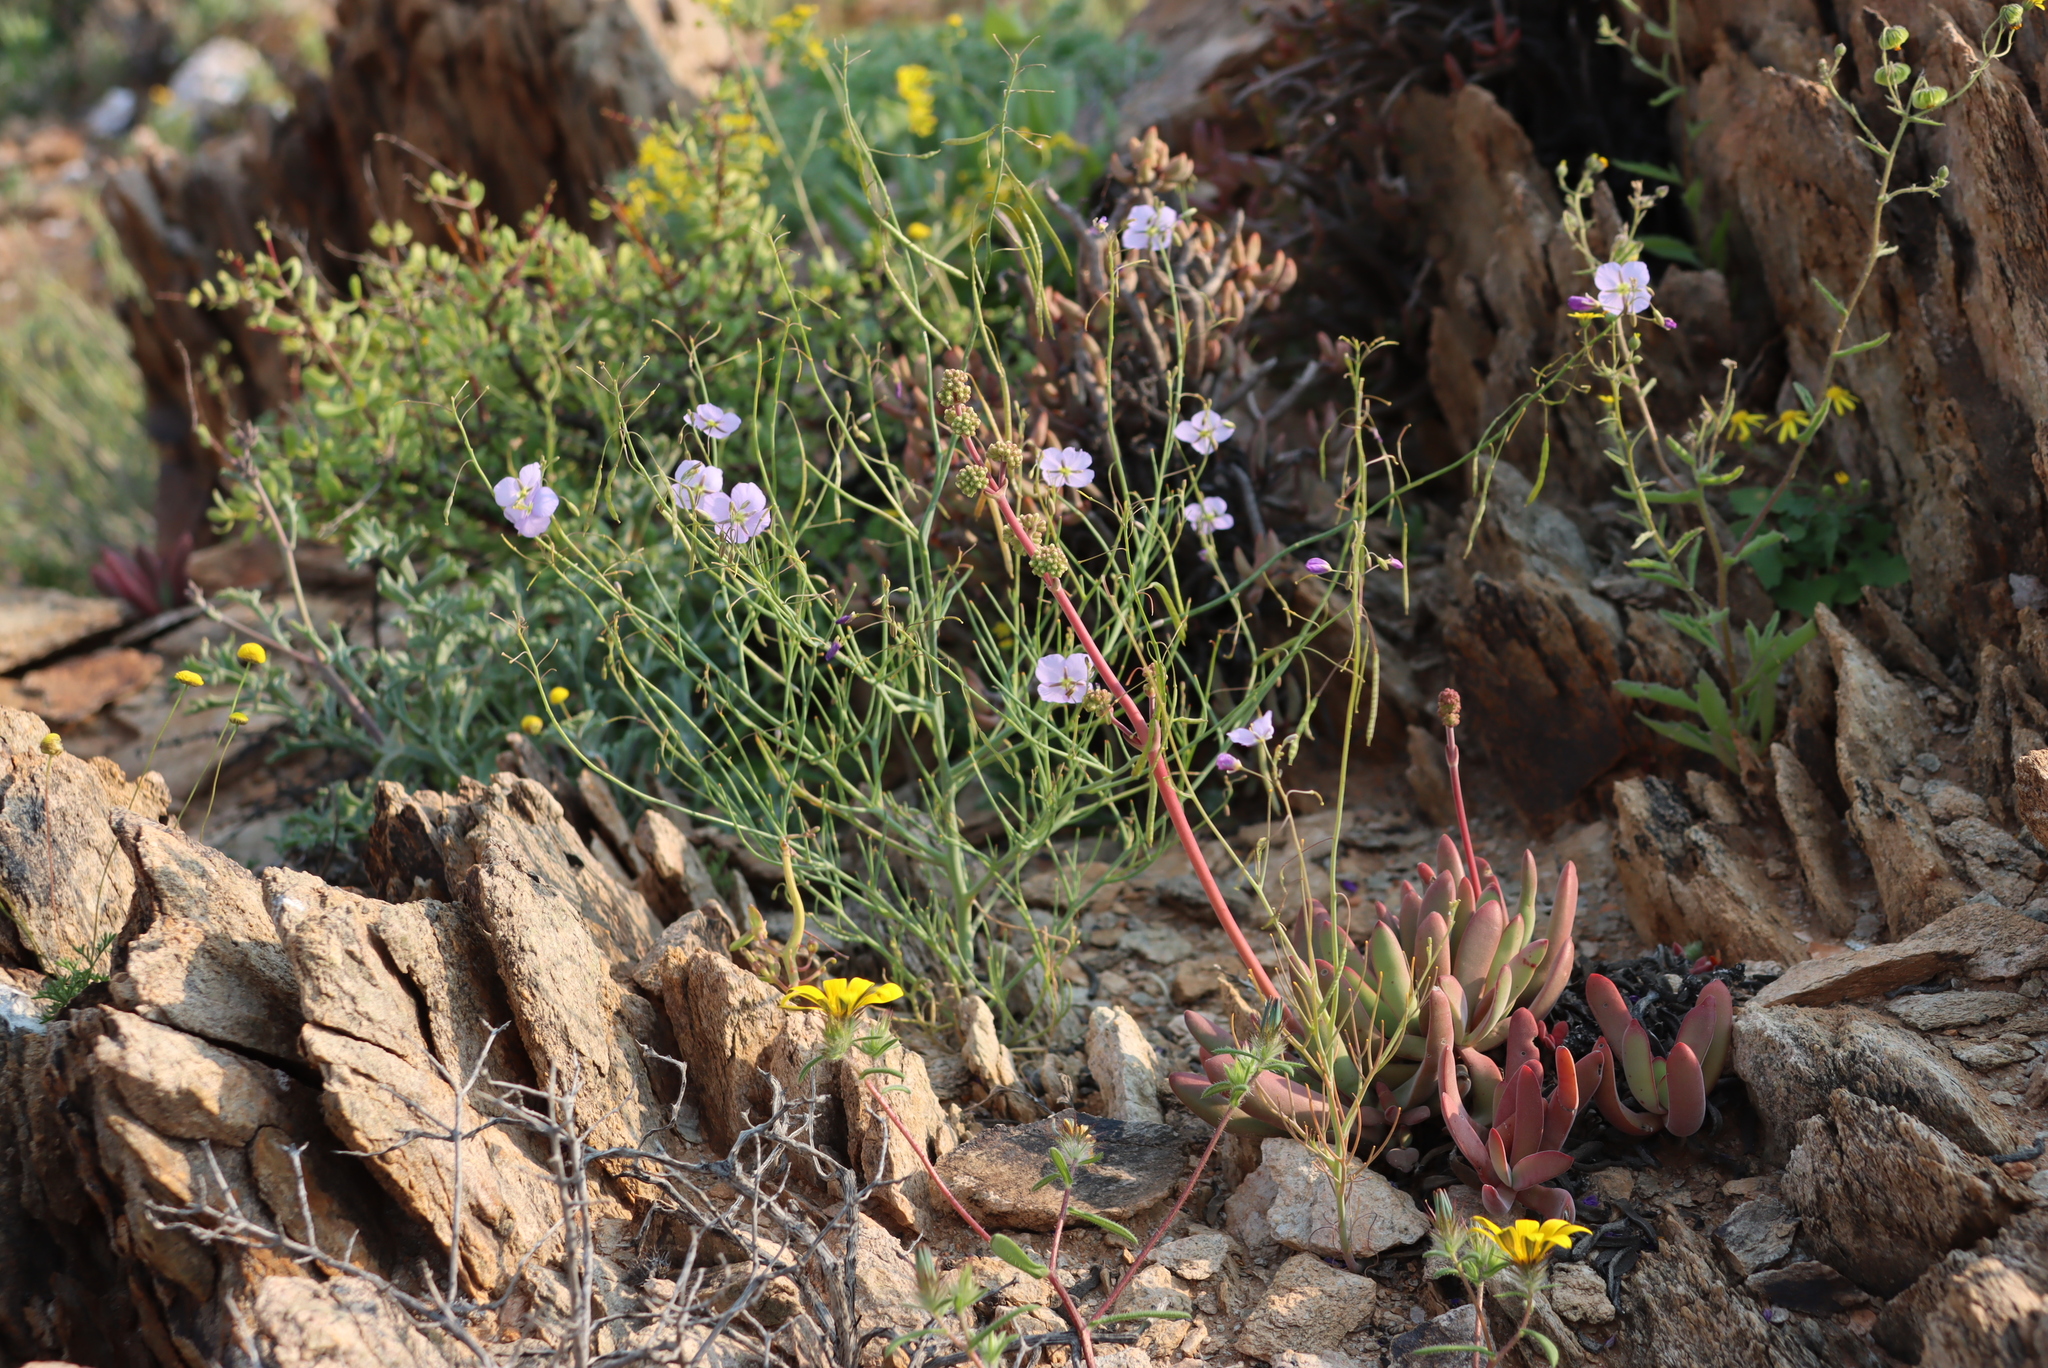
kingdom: Plantae
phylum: Tracheophyta
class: Magnoliopsida
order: Saxifragales
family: Crassulaceae
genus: Crassula
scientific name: Crassula subacaulis
